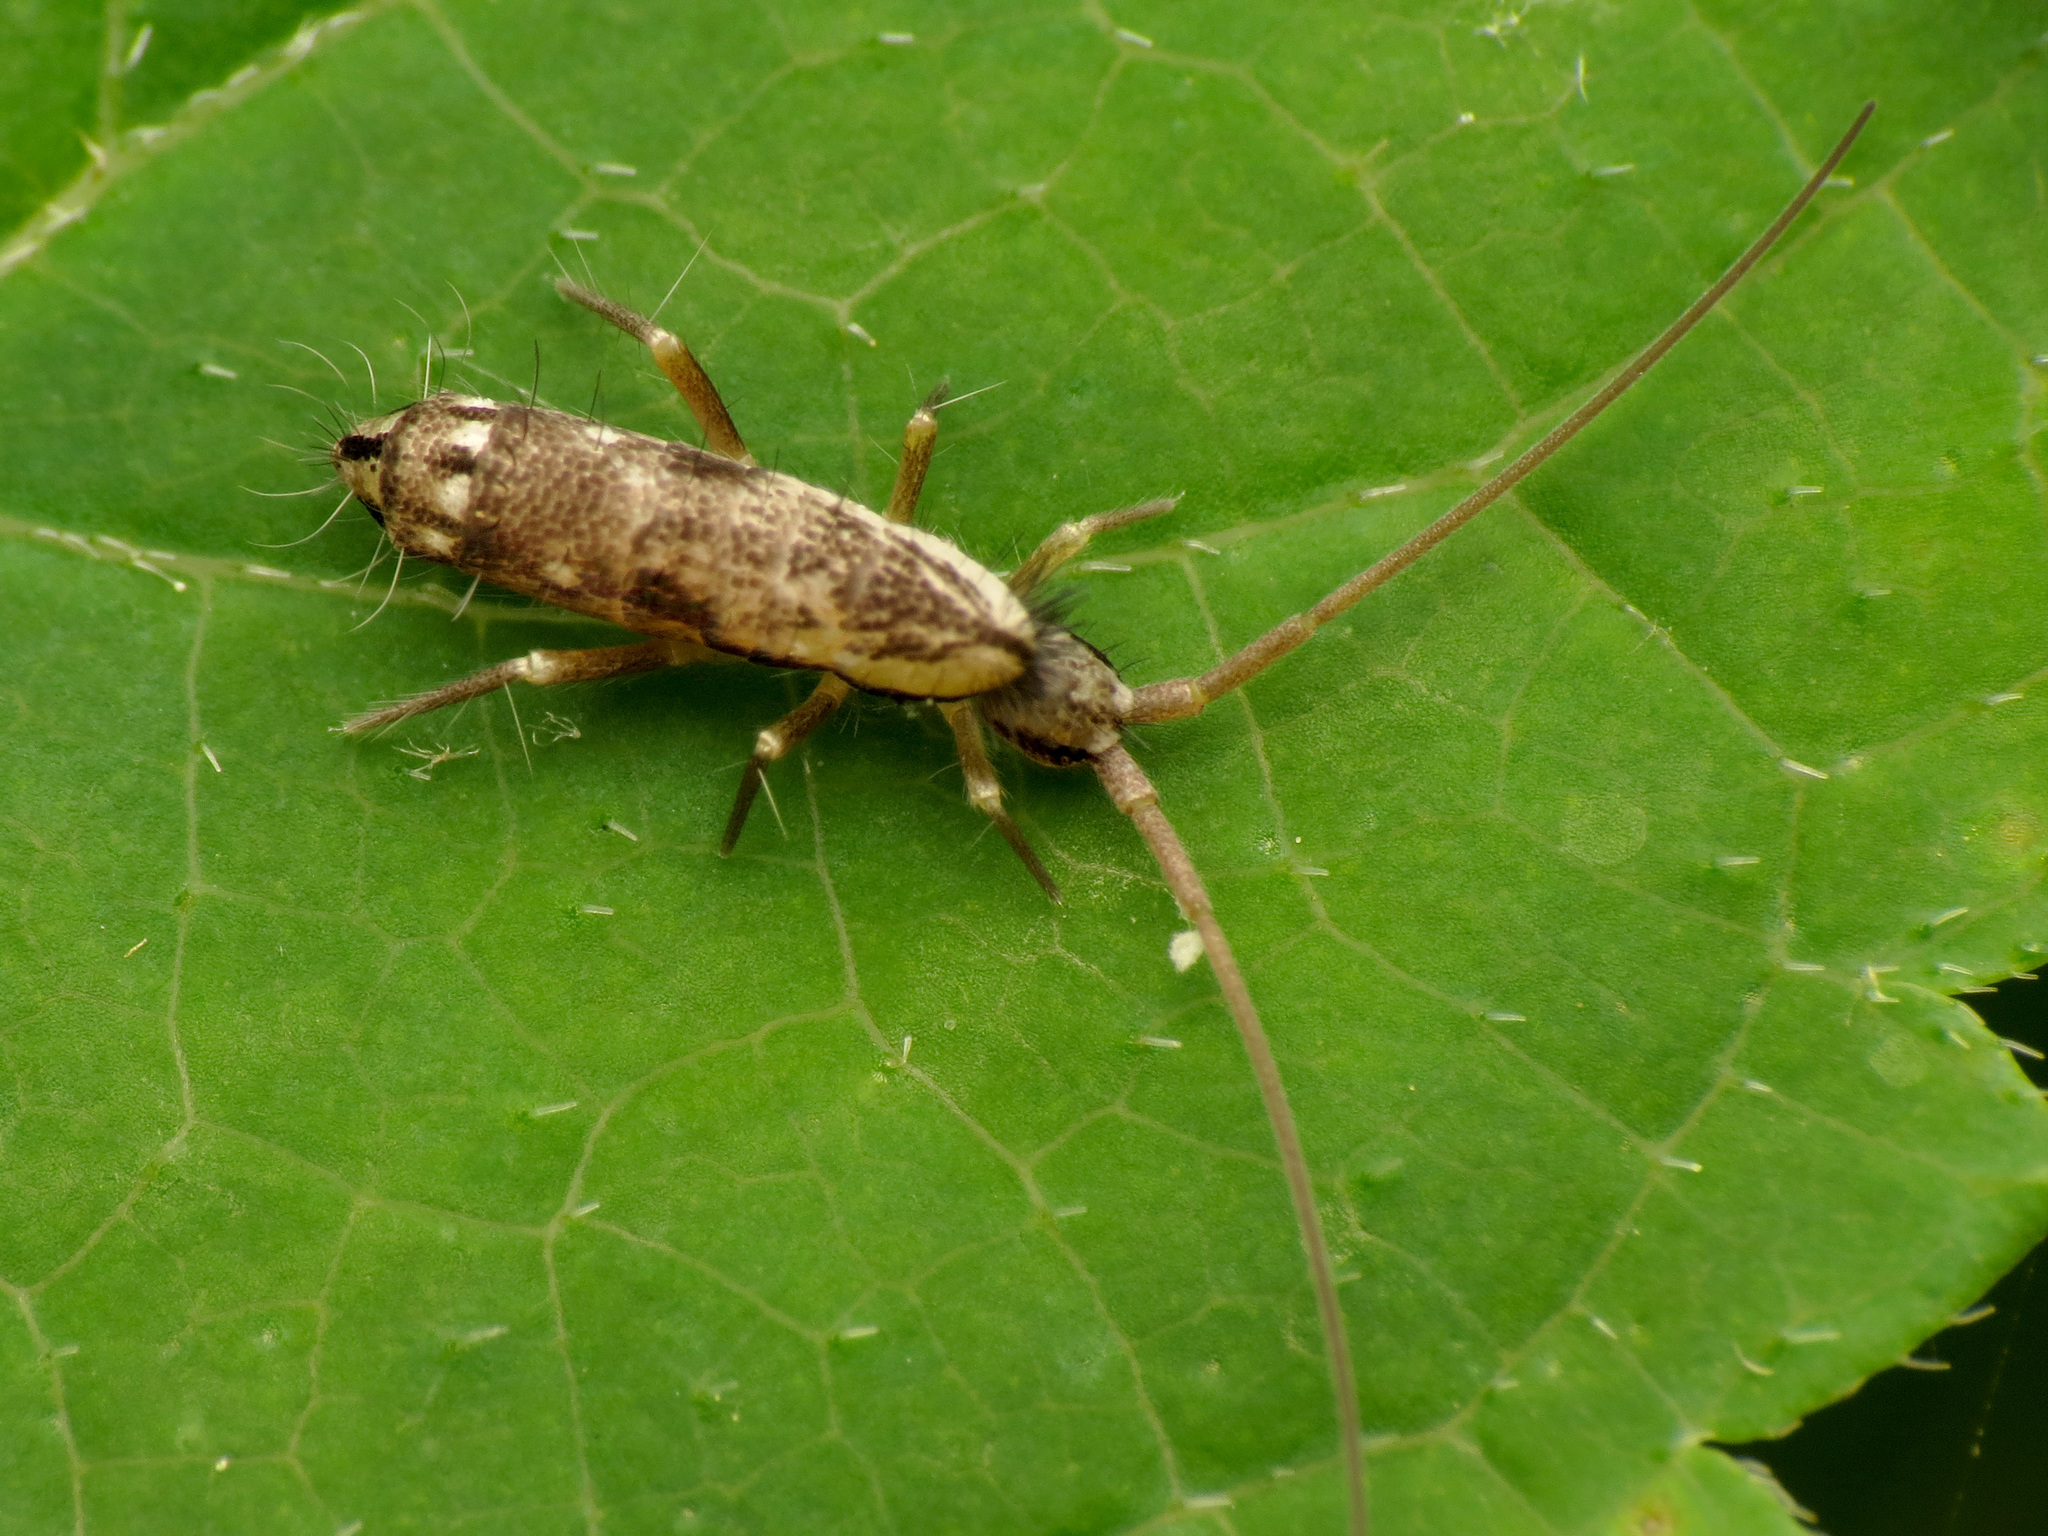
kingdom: Animalia
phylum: Arthropoda
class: Collembola
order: Entomobryomorpha
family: Tomoceridae
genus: Pogonognathellus
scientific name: Pogonognathellus elongatus
